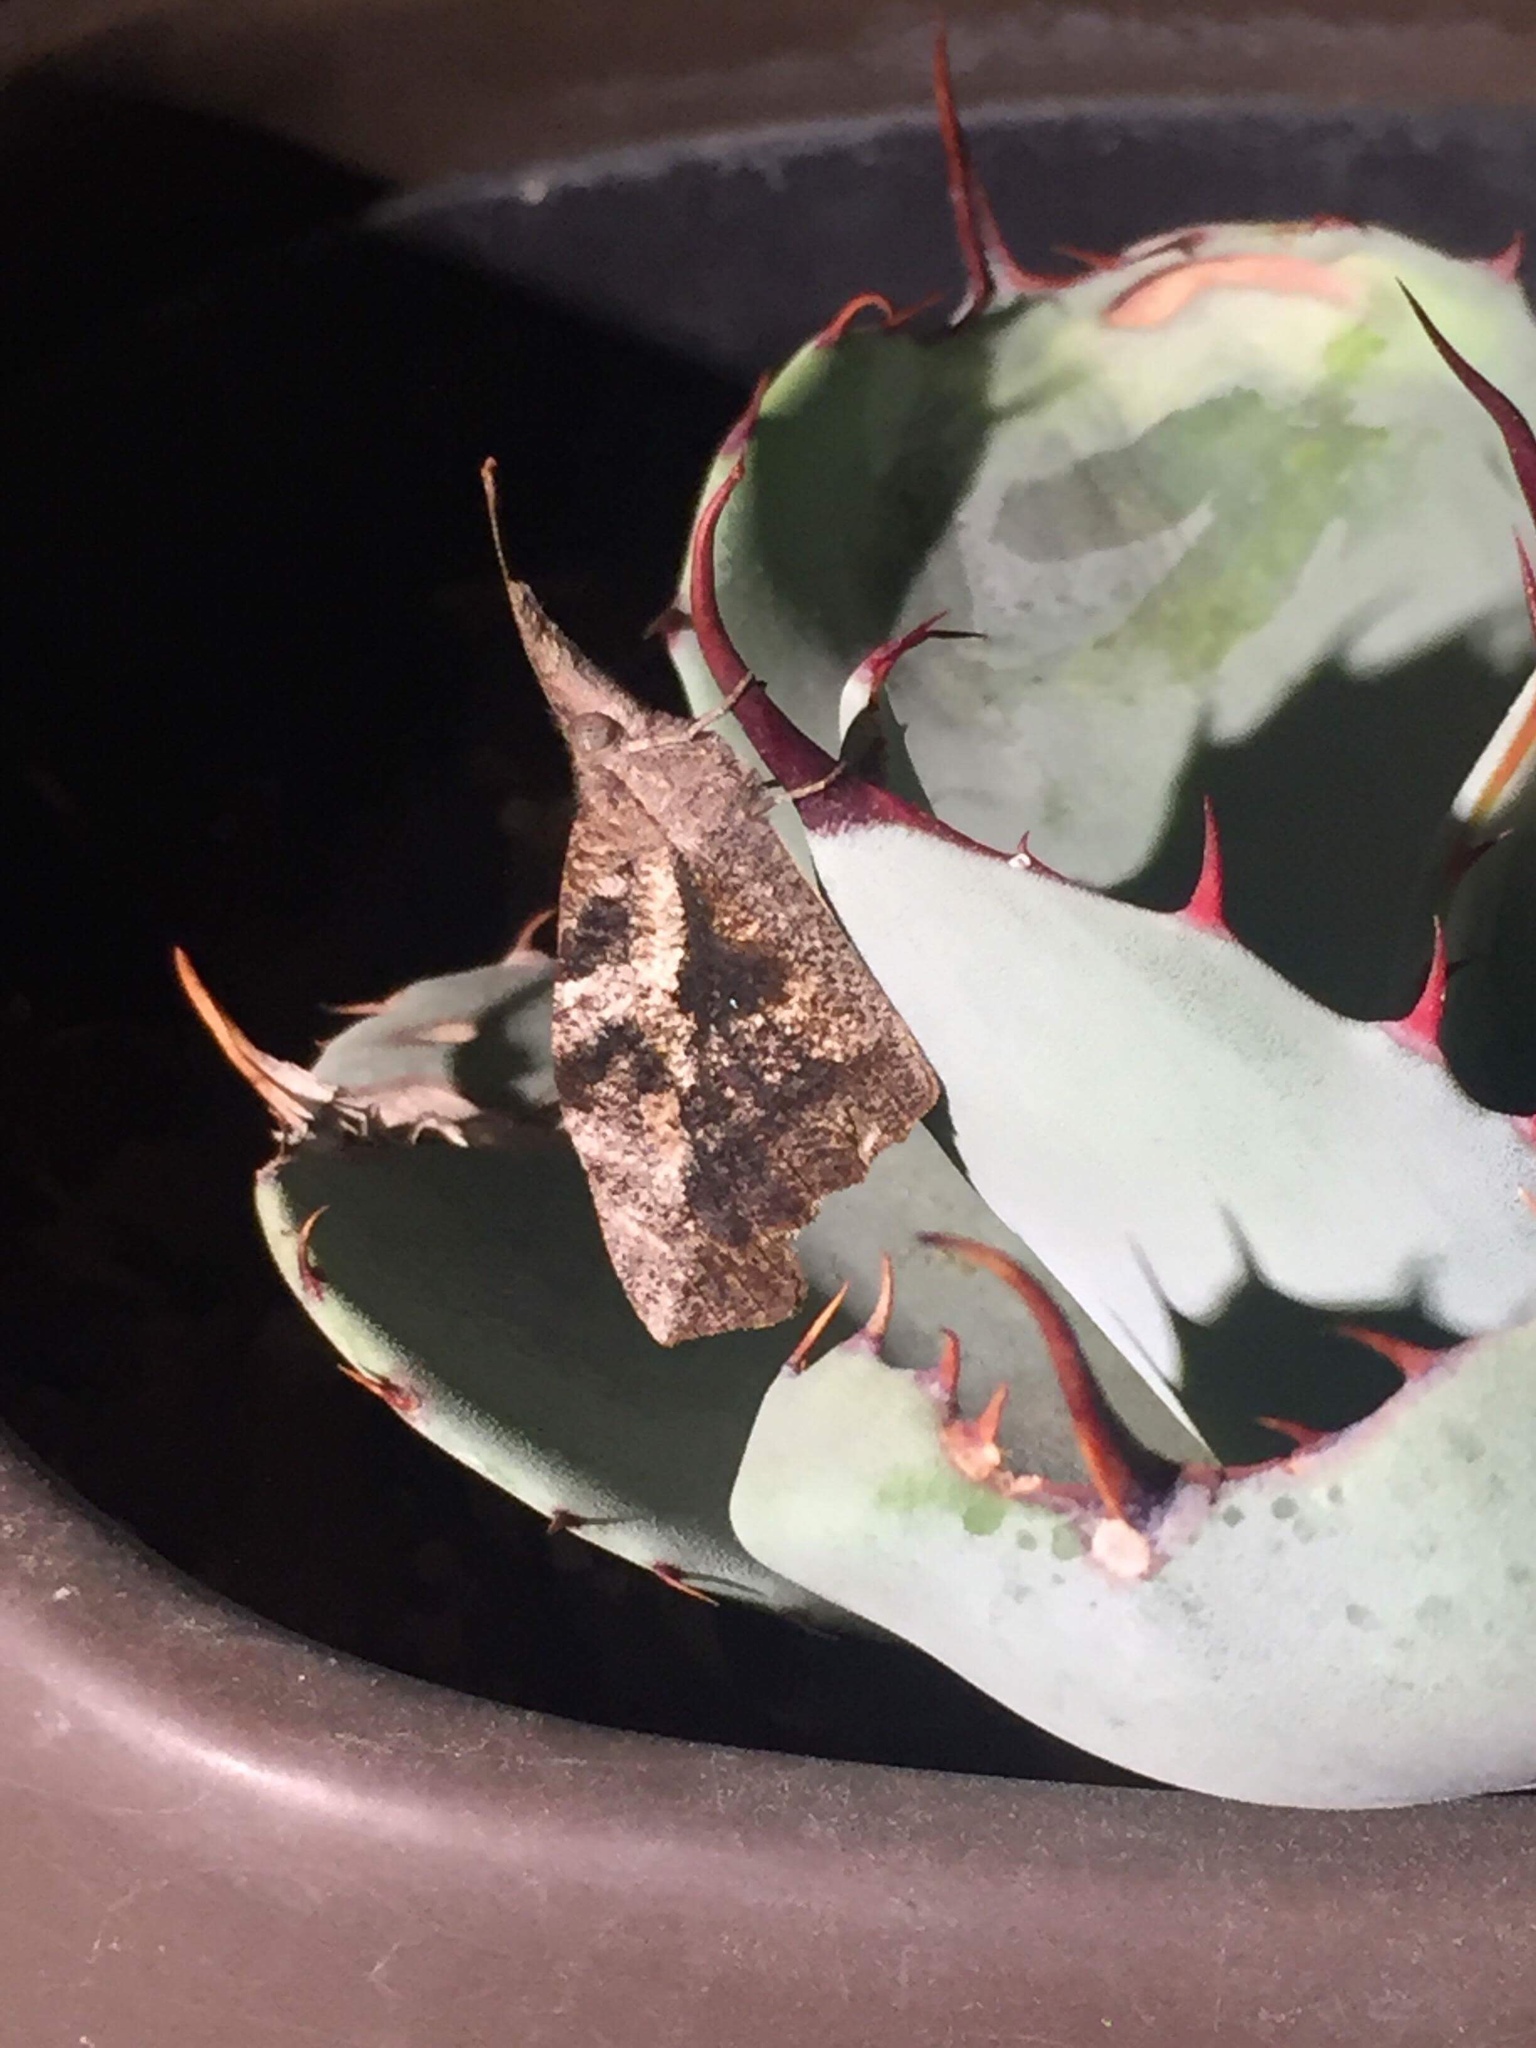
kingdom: Animalia
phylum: Arthropoda
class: Insecta
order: Lepidoptera
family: Nymphalidae
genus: Libytheana
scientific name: Libytheana carinenta
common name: American snout
